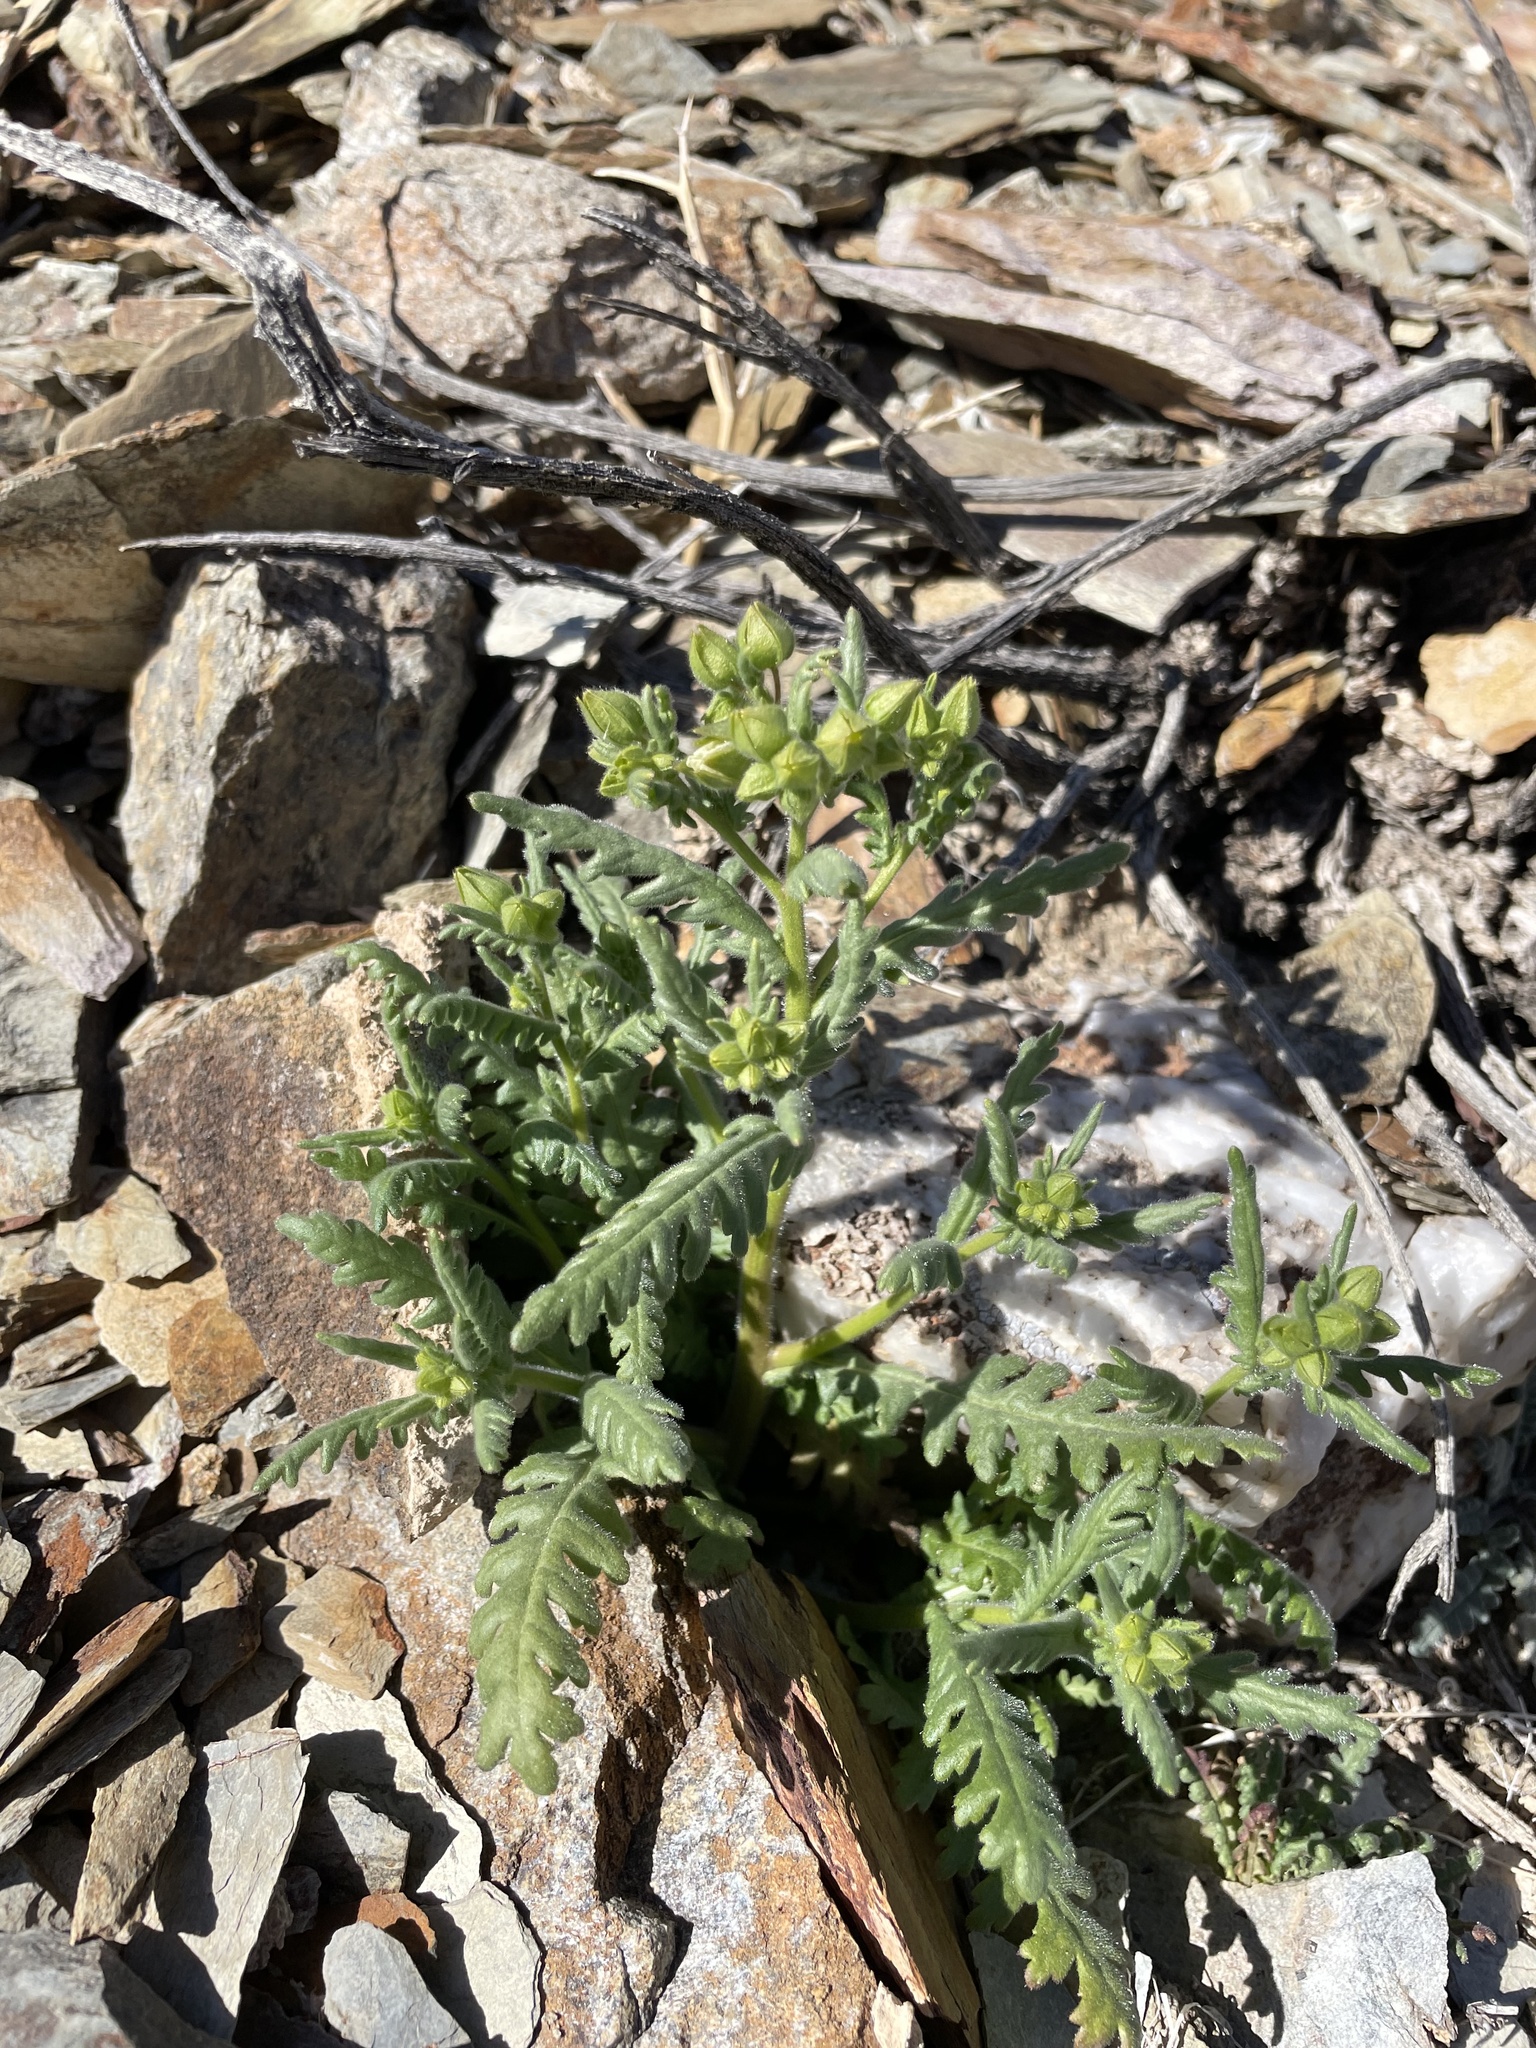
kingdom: Plantae
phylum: Tracheophyta
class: Magnoliopsida
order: Boraginales
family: Hydrophyllaceae
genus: Emmenanthe
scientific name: Emmenanthe penduliflora
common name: Whispering-bells
